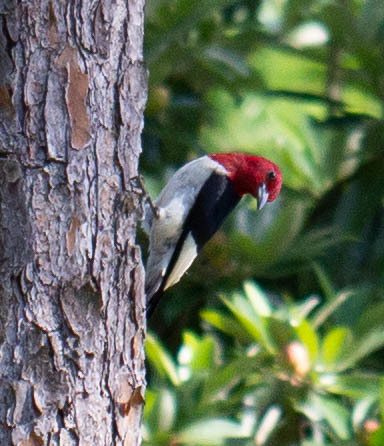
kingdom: Animalia
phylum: Chordata
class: Aves
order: Piciformes
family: Picidae
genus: Melanerpes
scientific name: Melanerpes erythrocephalus
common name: Red-headed woodpecker
